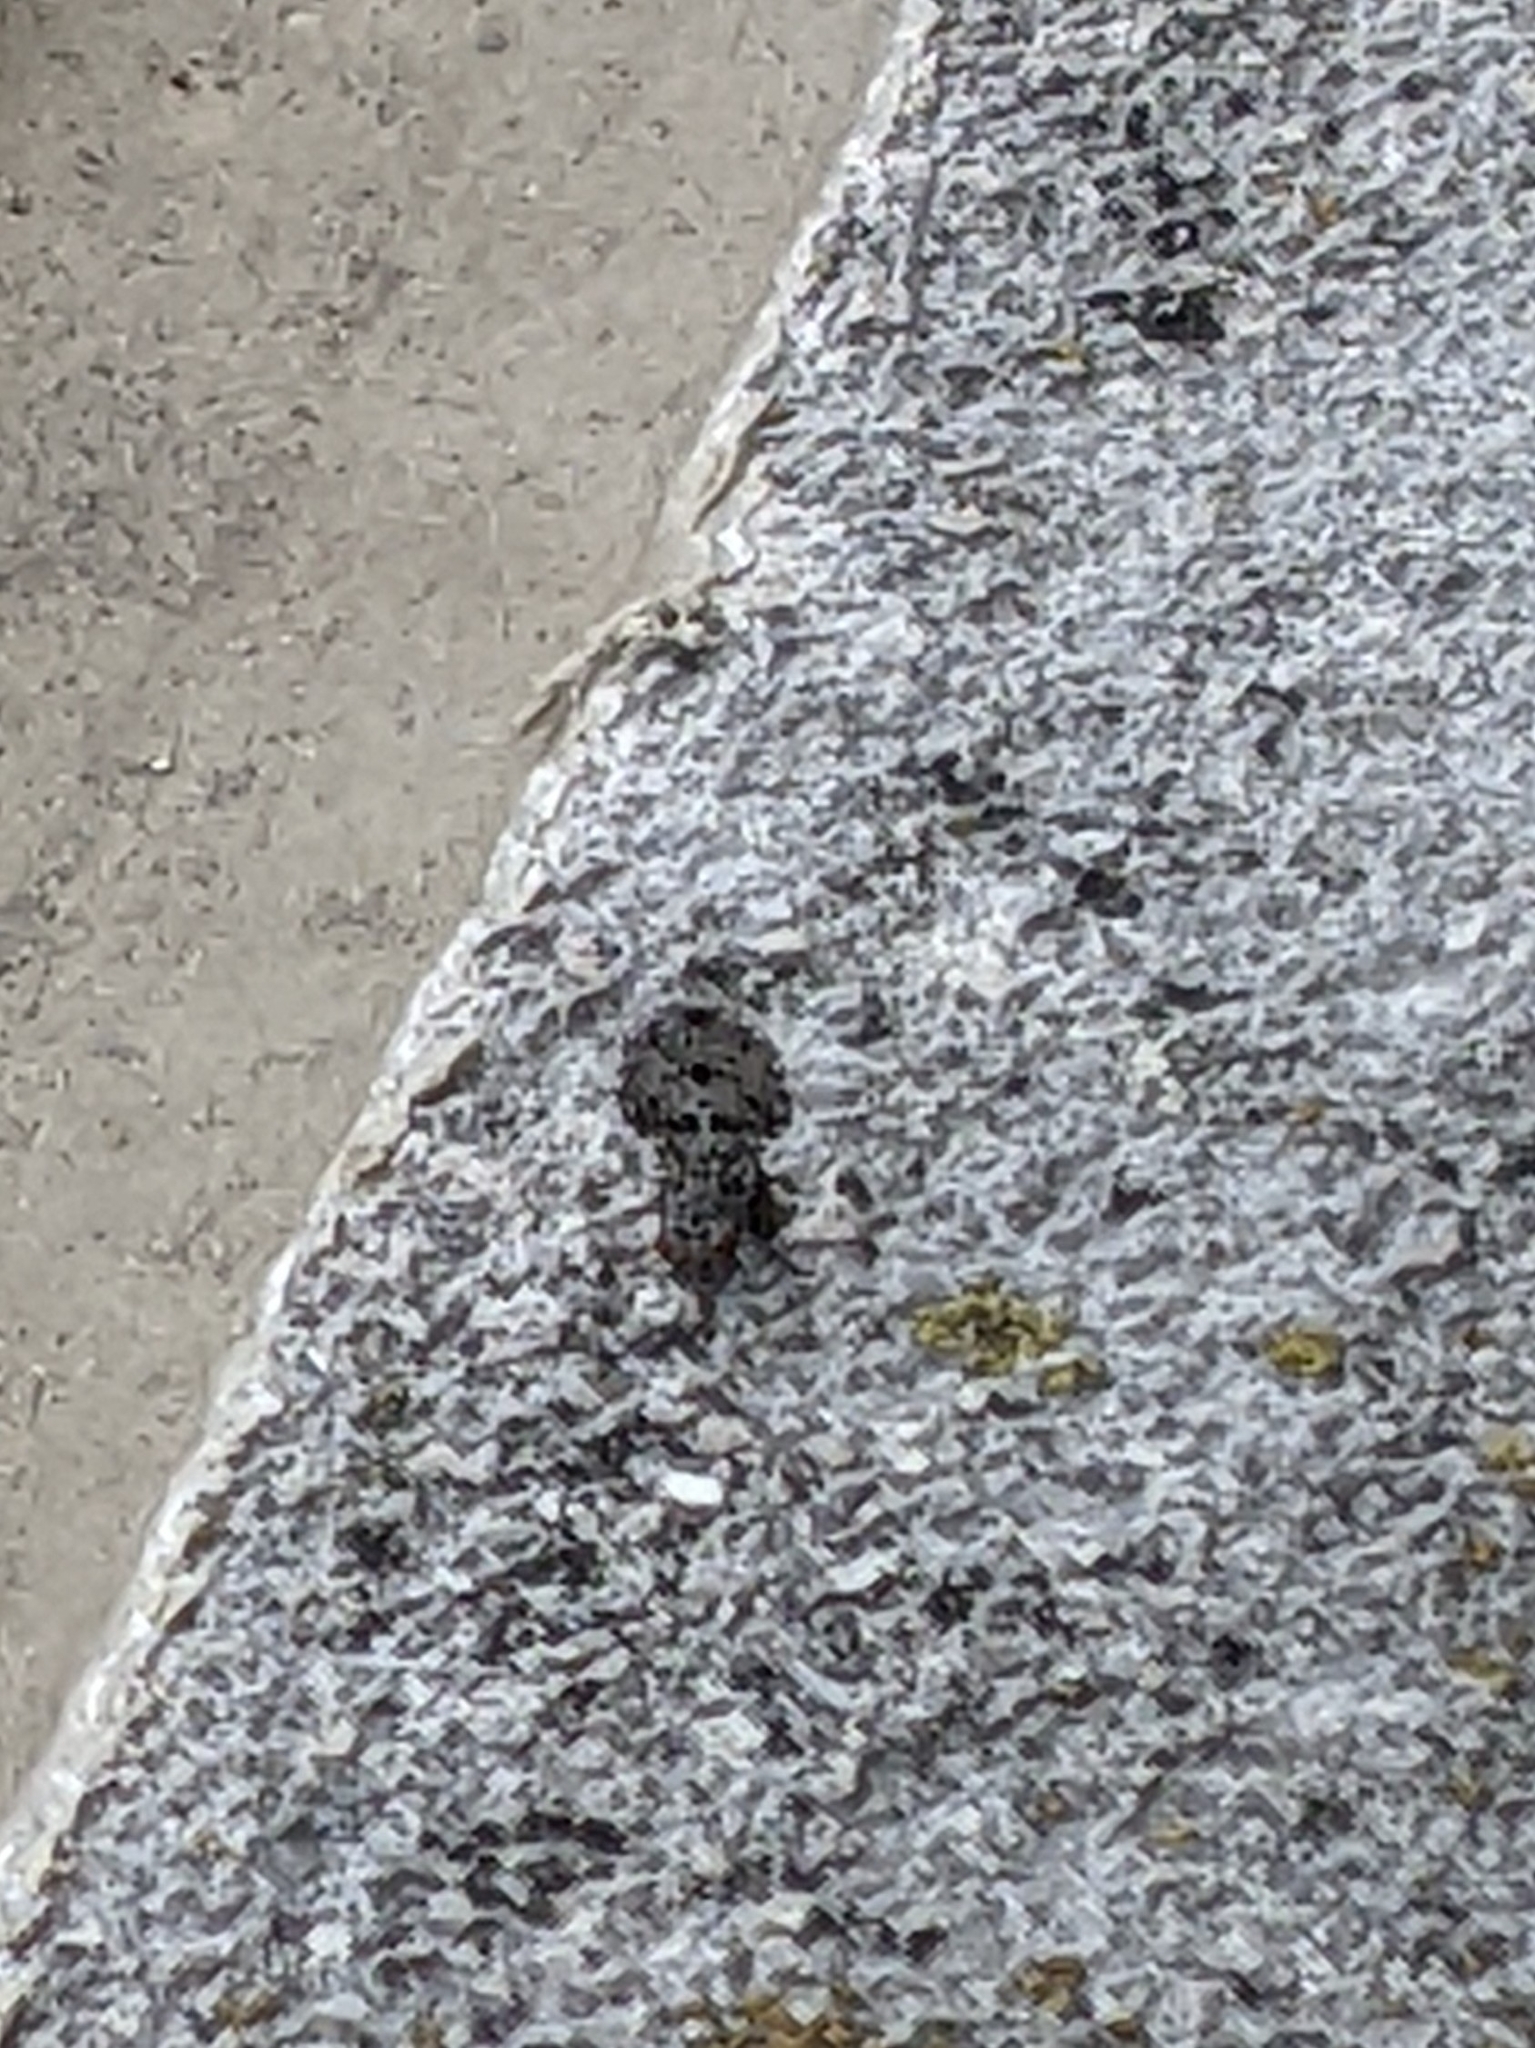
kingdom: Animalia
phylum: Arthropoda
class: Insecta
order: Diptera
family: Ulidiidae
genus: Callopistromyia
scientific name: Callopistromyia annulipes
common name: Peacock fly
